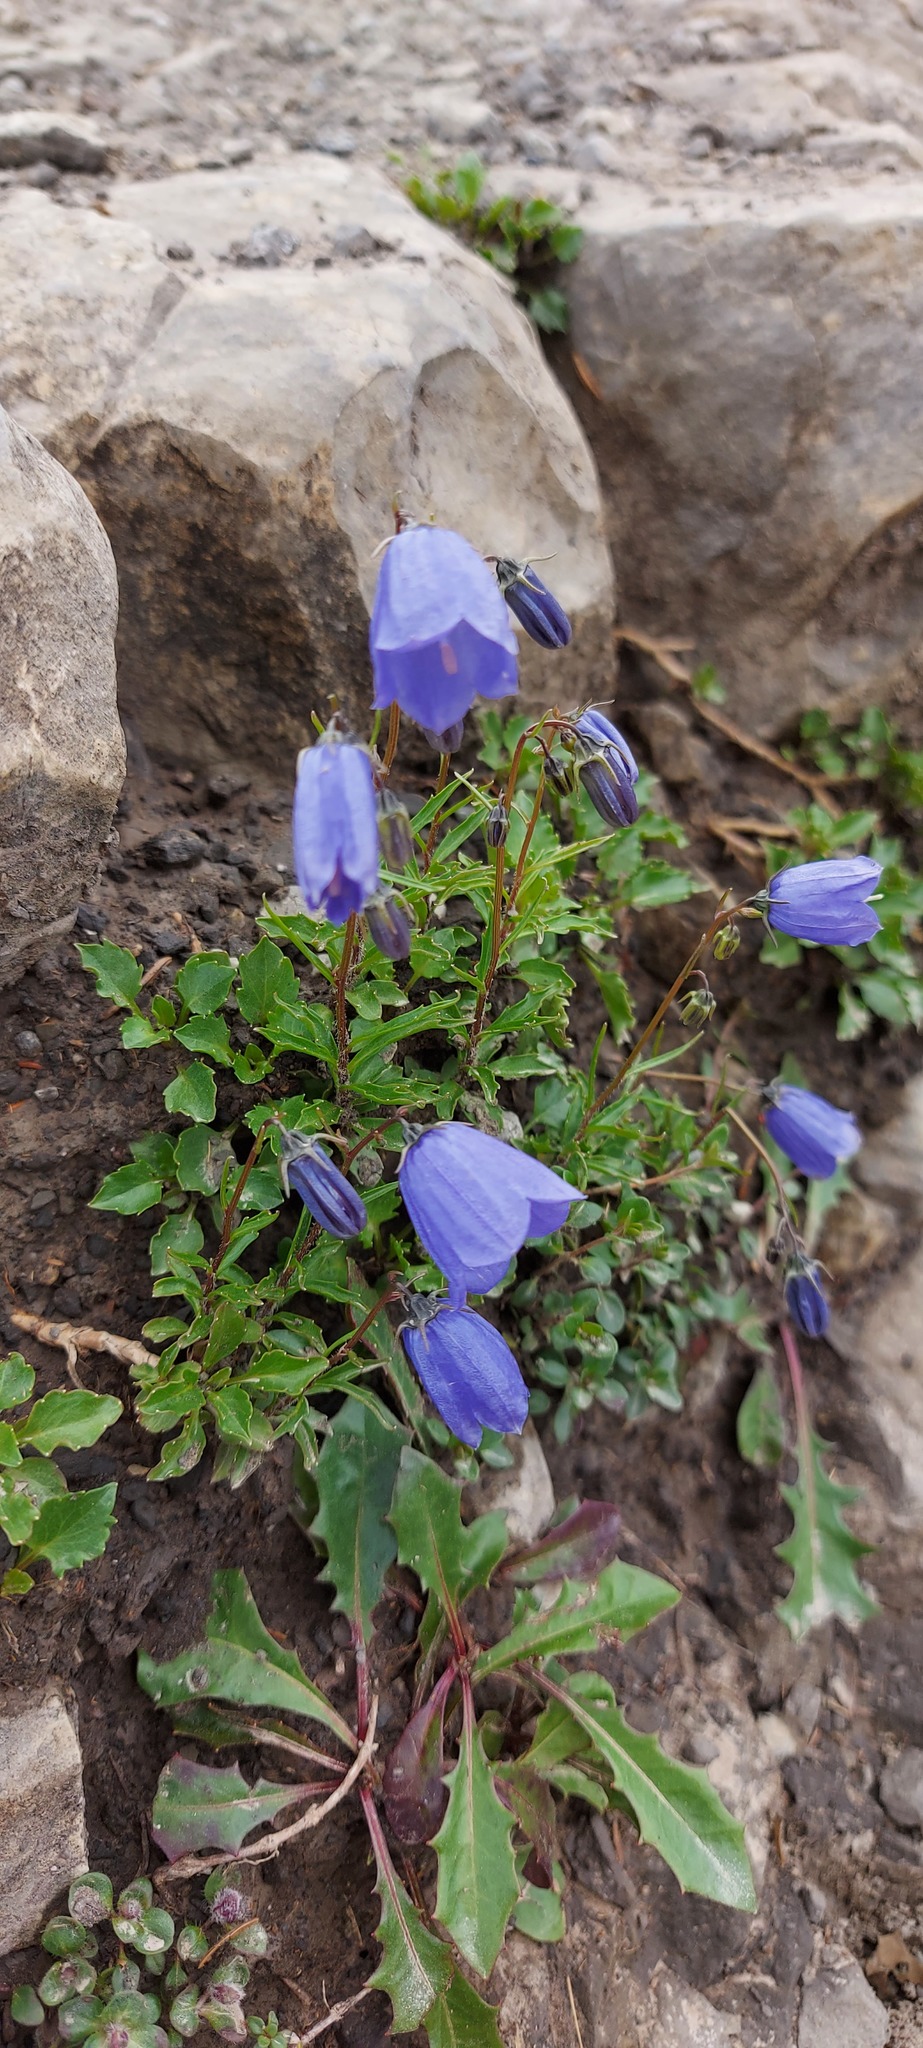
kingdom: Plantae
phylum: Tracheophyta
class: Magnoliopsida
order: Asterales
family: Campanulaceae
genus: Campanula
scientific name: Campanula cochleariifolia
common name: Fairies'-thimbles
